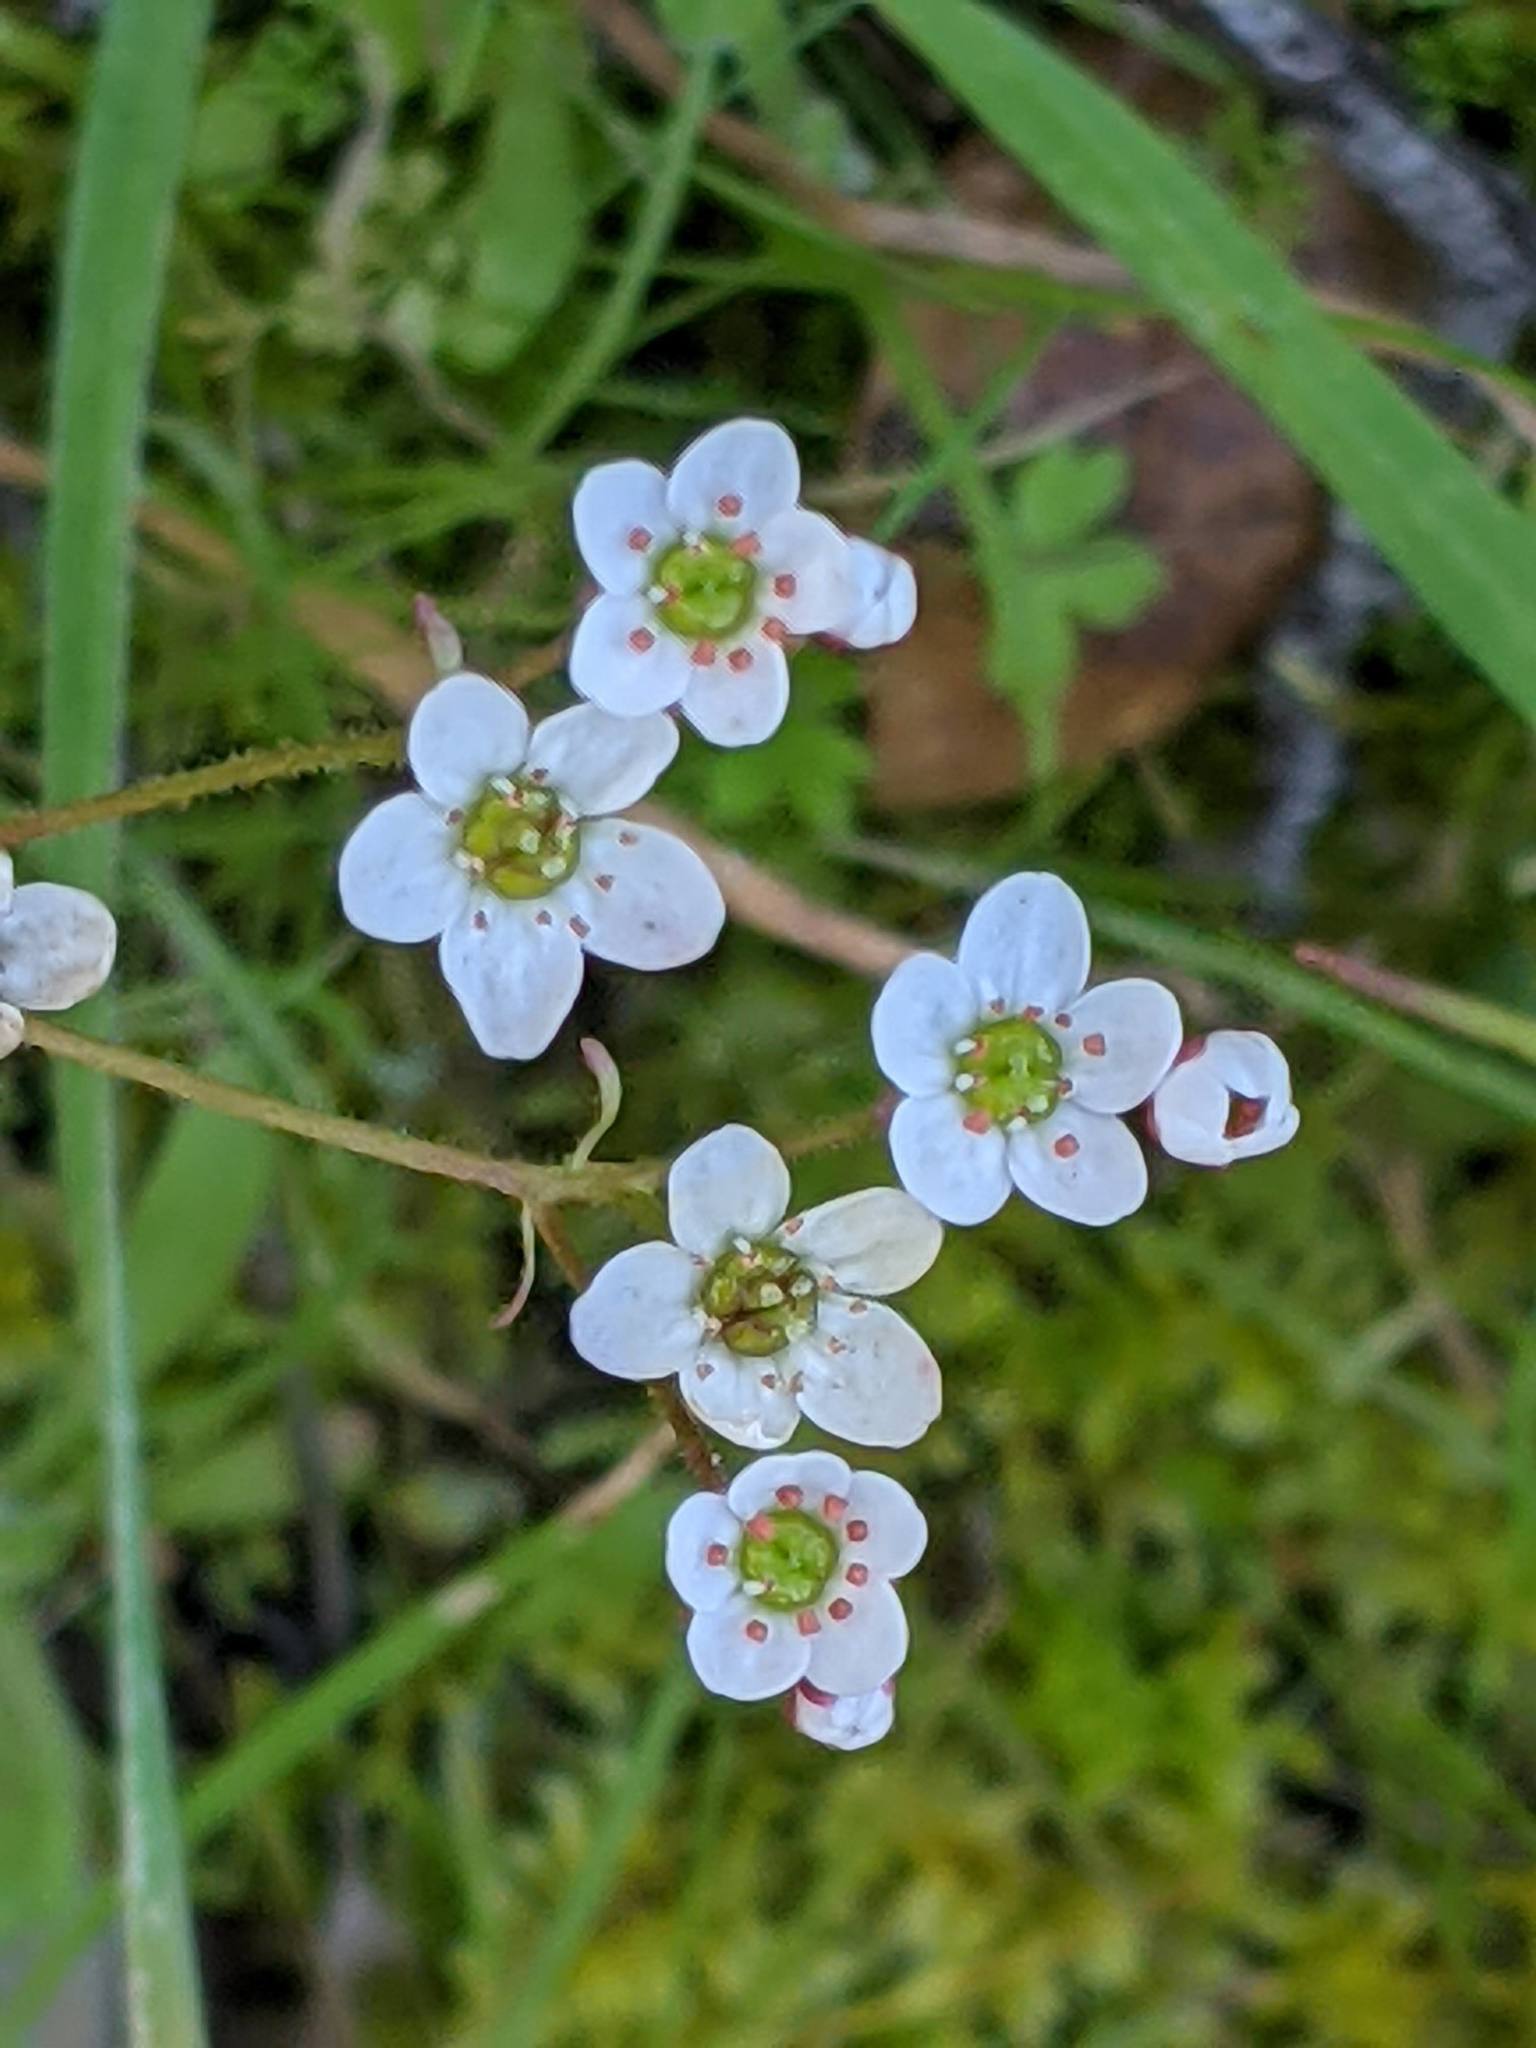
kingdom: Plantae
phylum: Tracheophyta
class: Magnoliopsida
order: Saxifragales
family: Saxifragaceae
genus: Micranthes
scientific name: Micranthes californica
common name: California saxifrage
